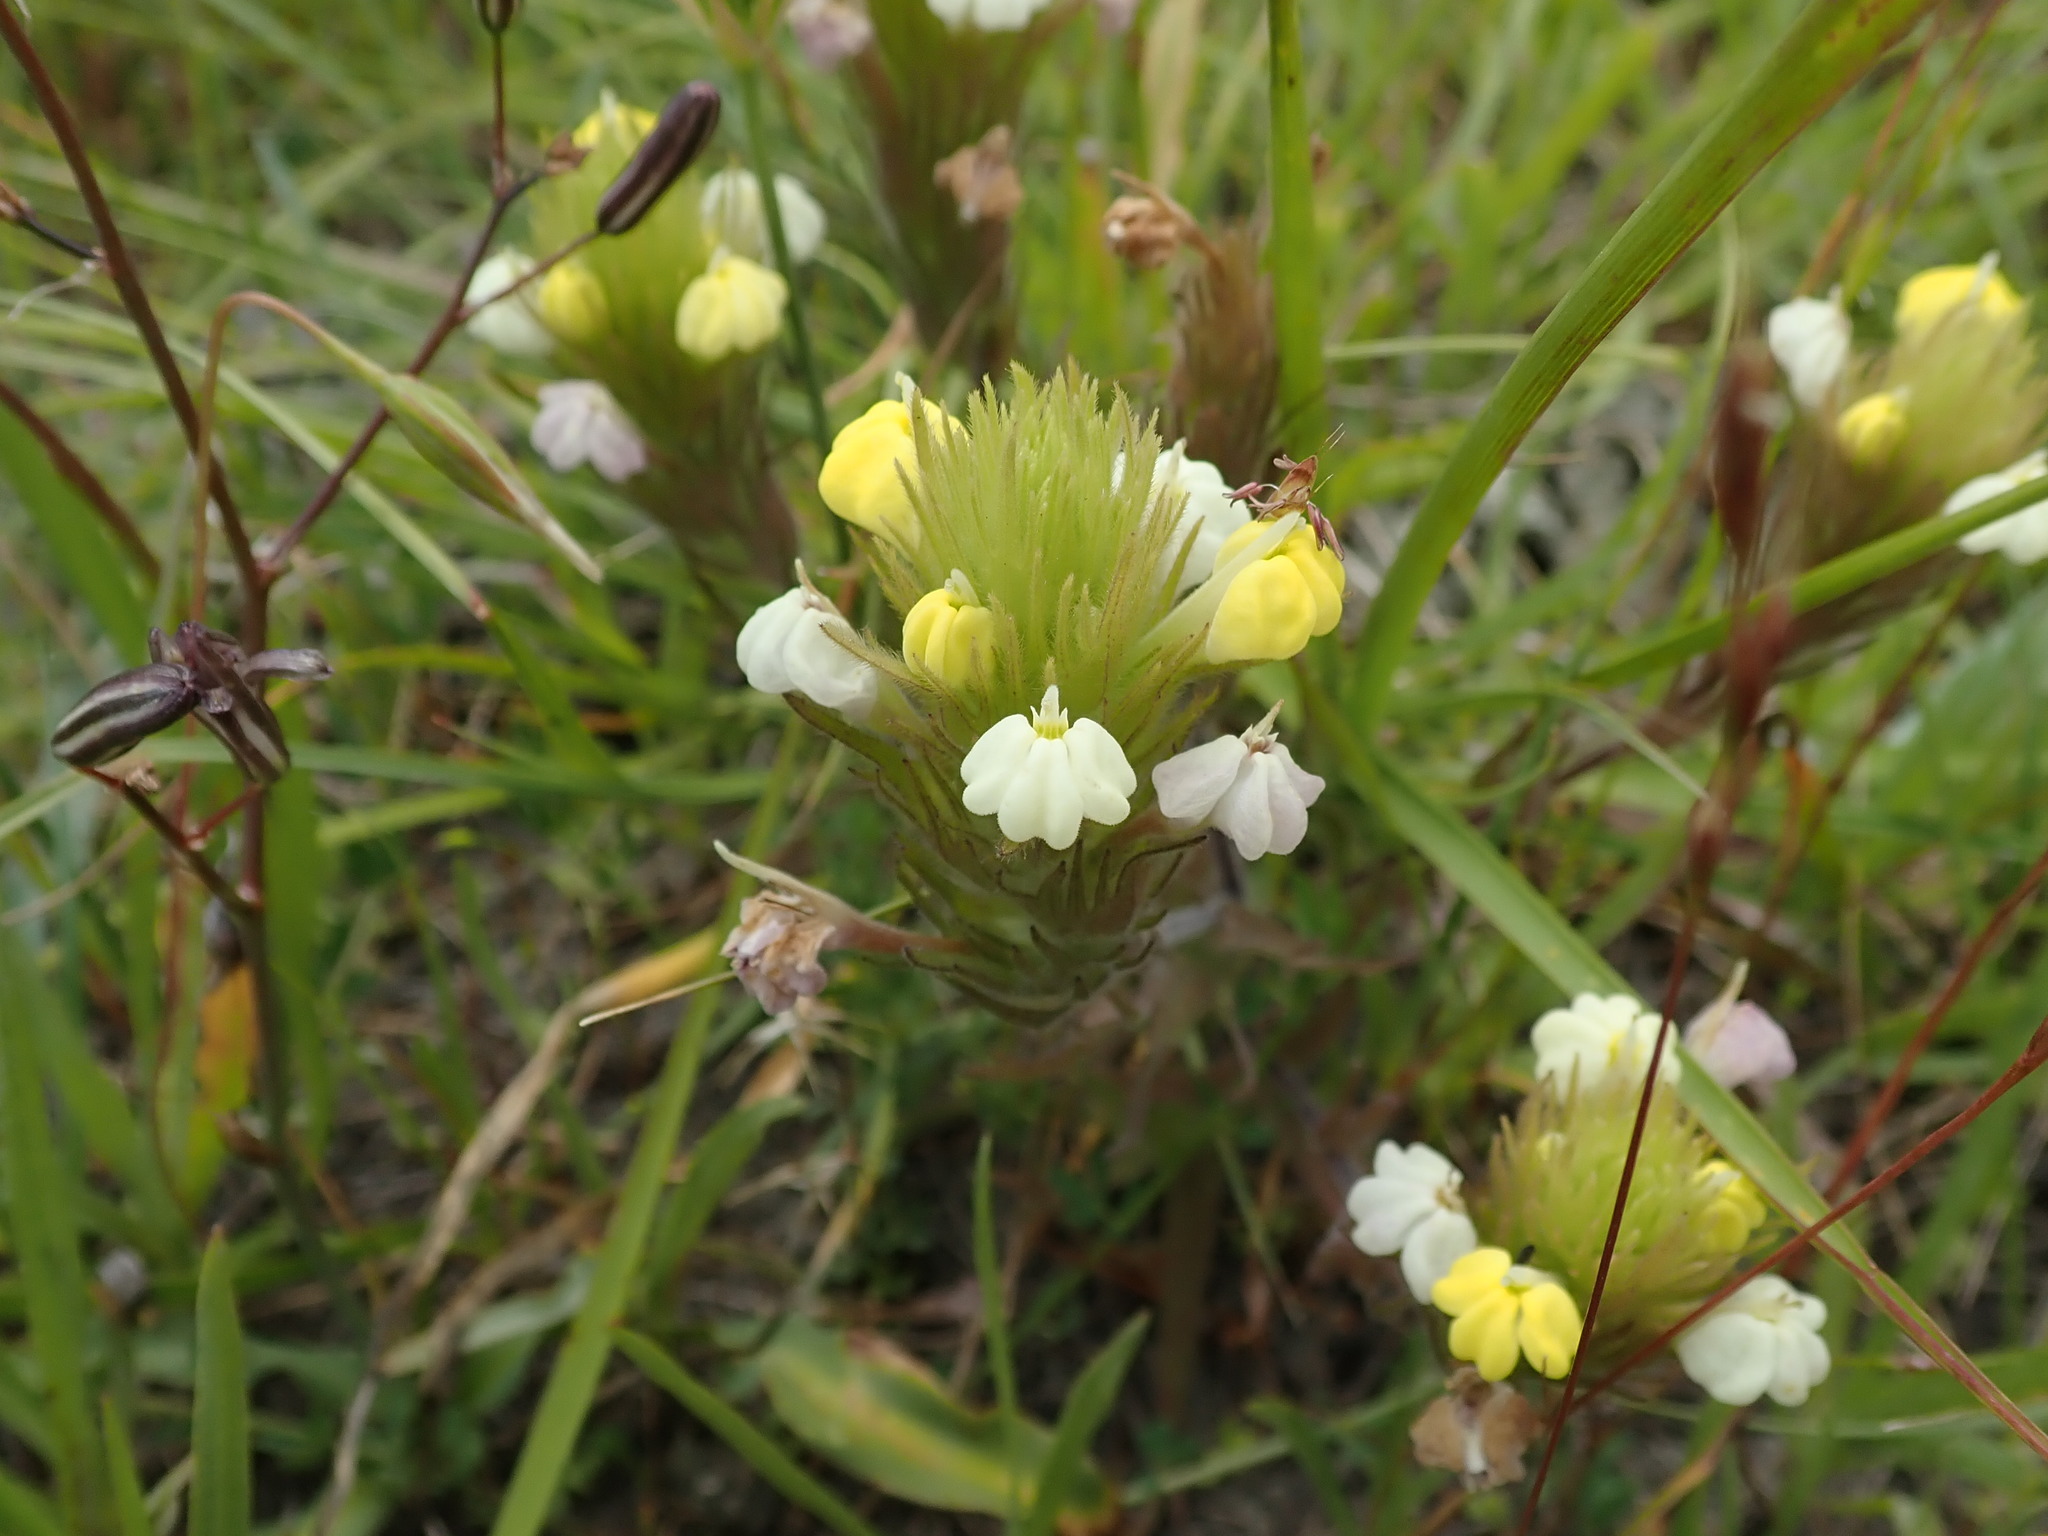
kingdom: Plantae
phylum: Tracheophyta
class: Magnoliopsida
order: Lamiales
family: Orobanchaceae
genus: Castilleja
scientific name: Castilleja rubicundula
